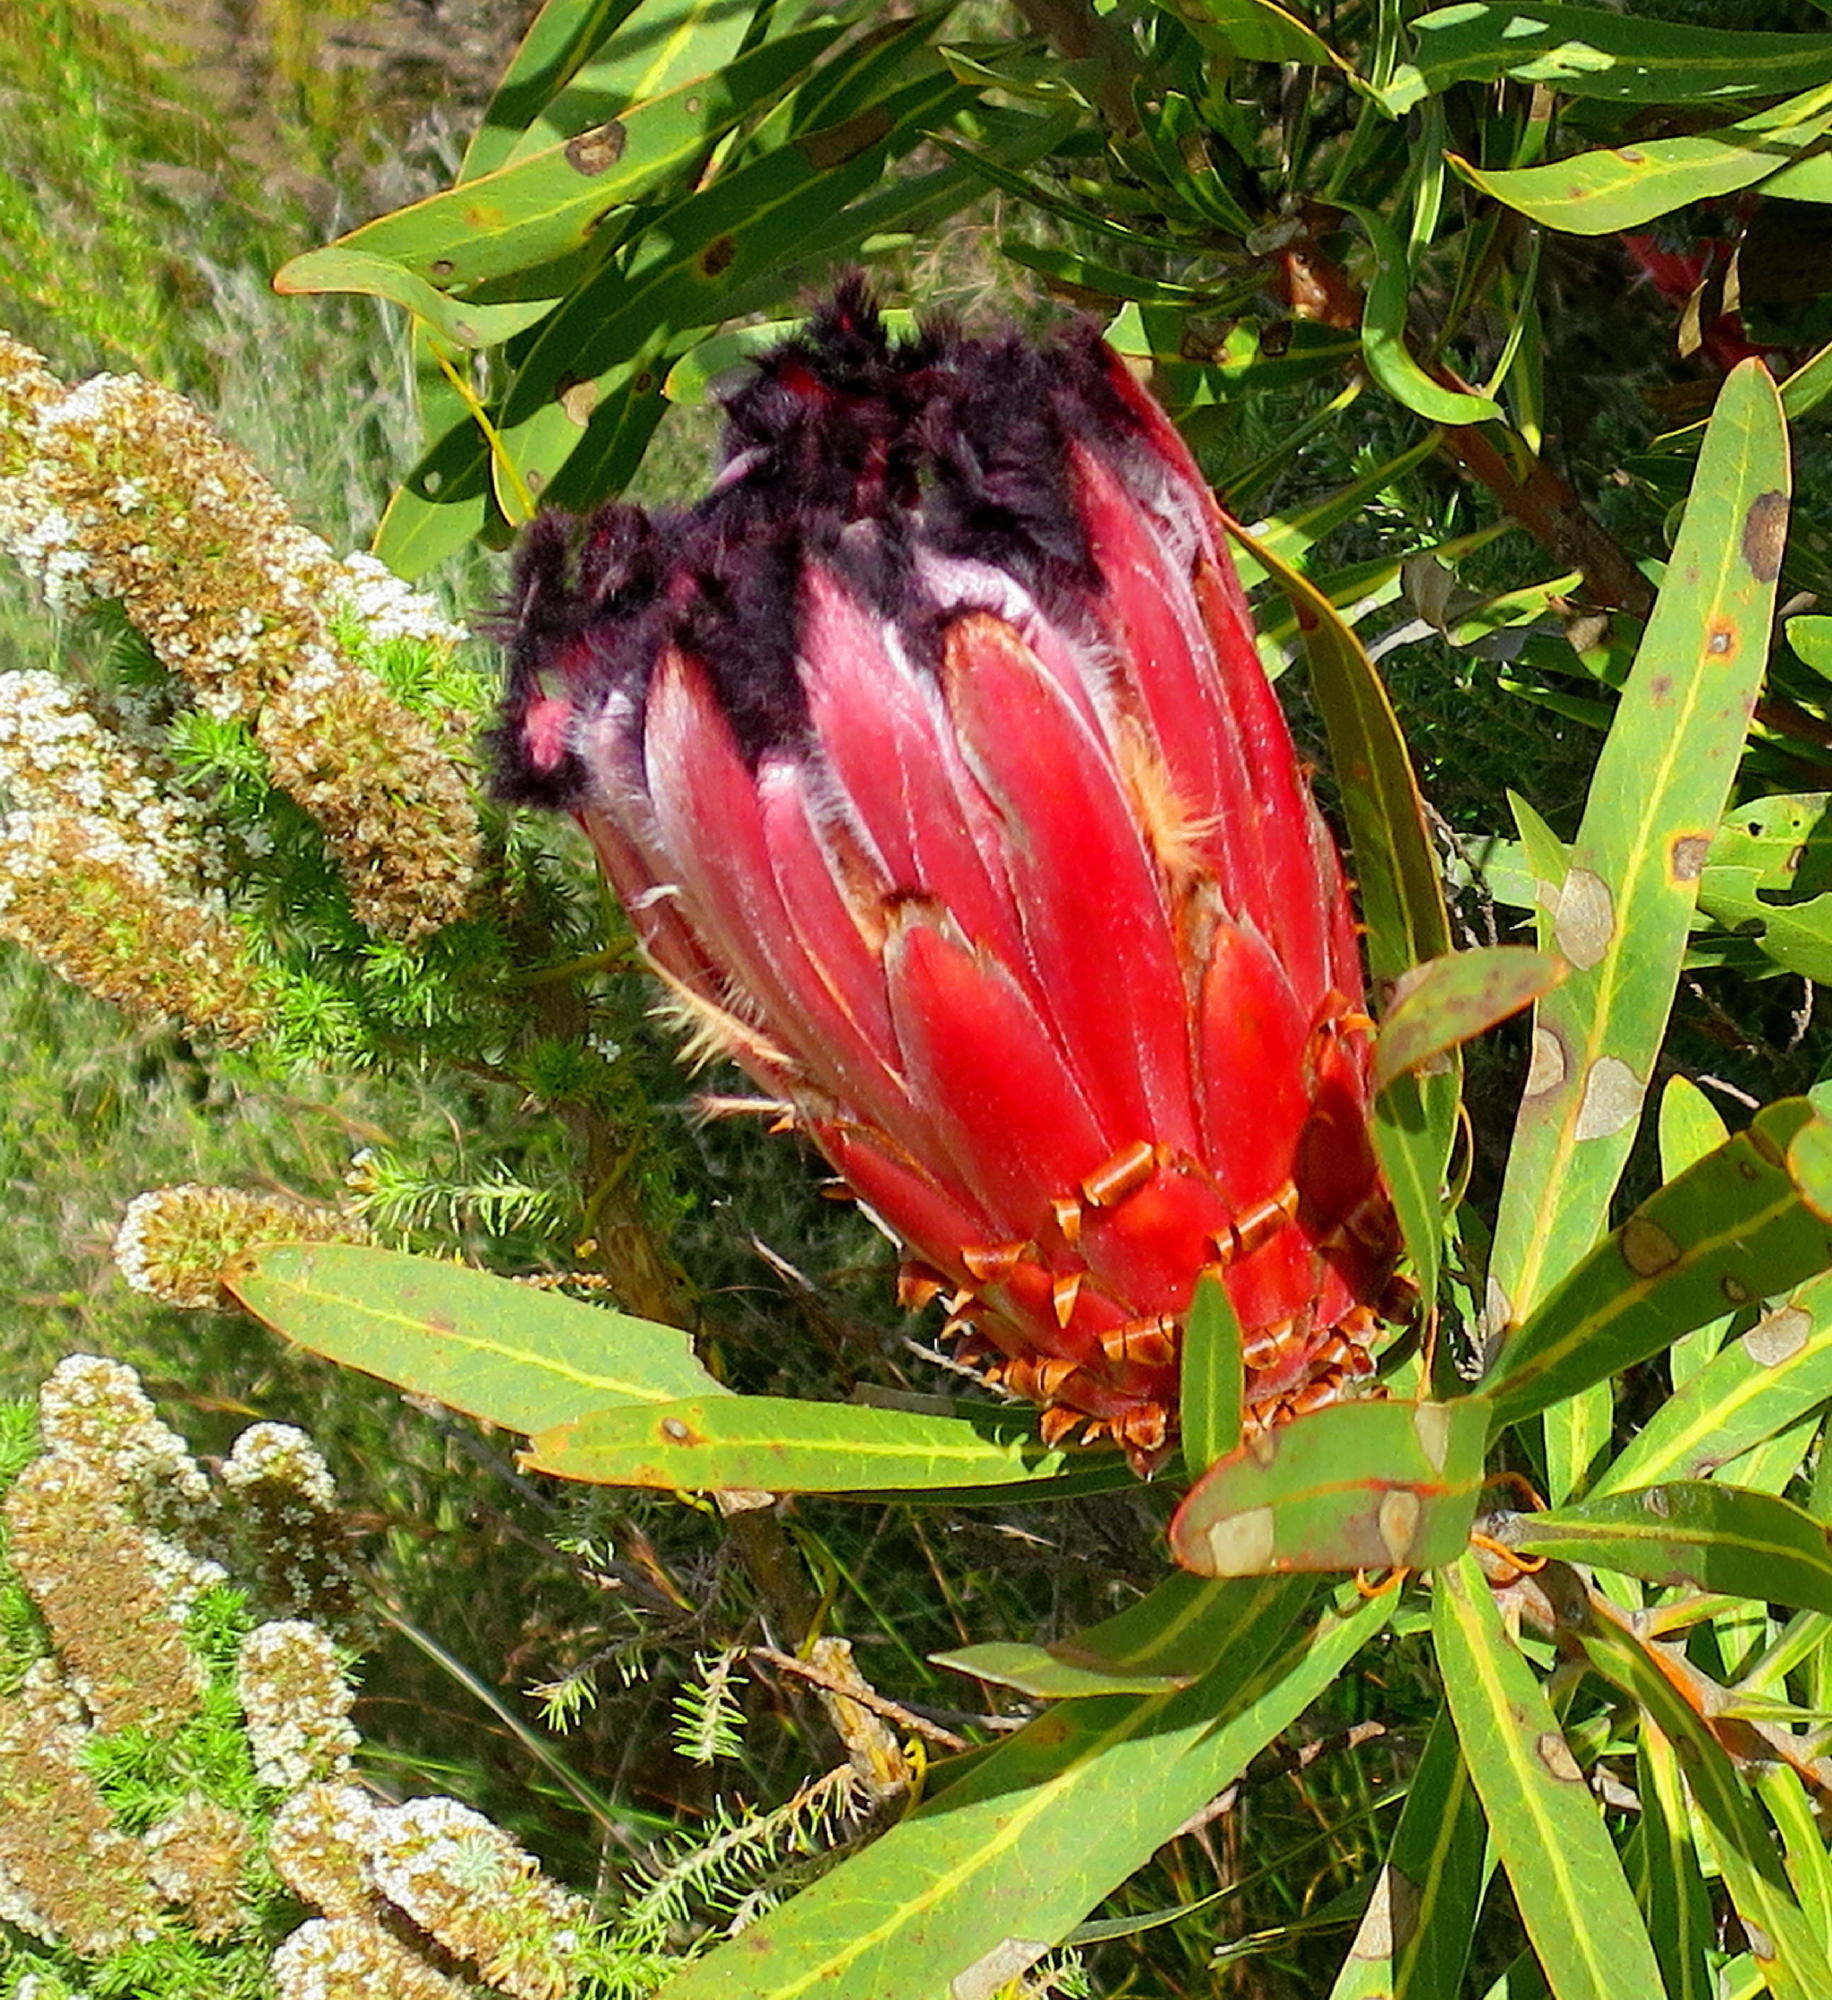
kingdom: Plantae
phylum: Tracheophyta
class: Magnoliopsida
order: Proteales
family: Proteaceae
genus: Protea
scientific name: Protea neriifolia
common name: Blue sugarbush
